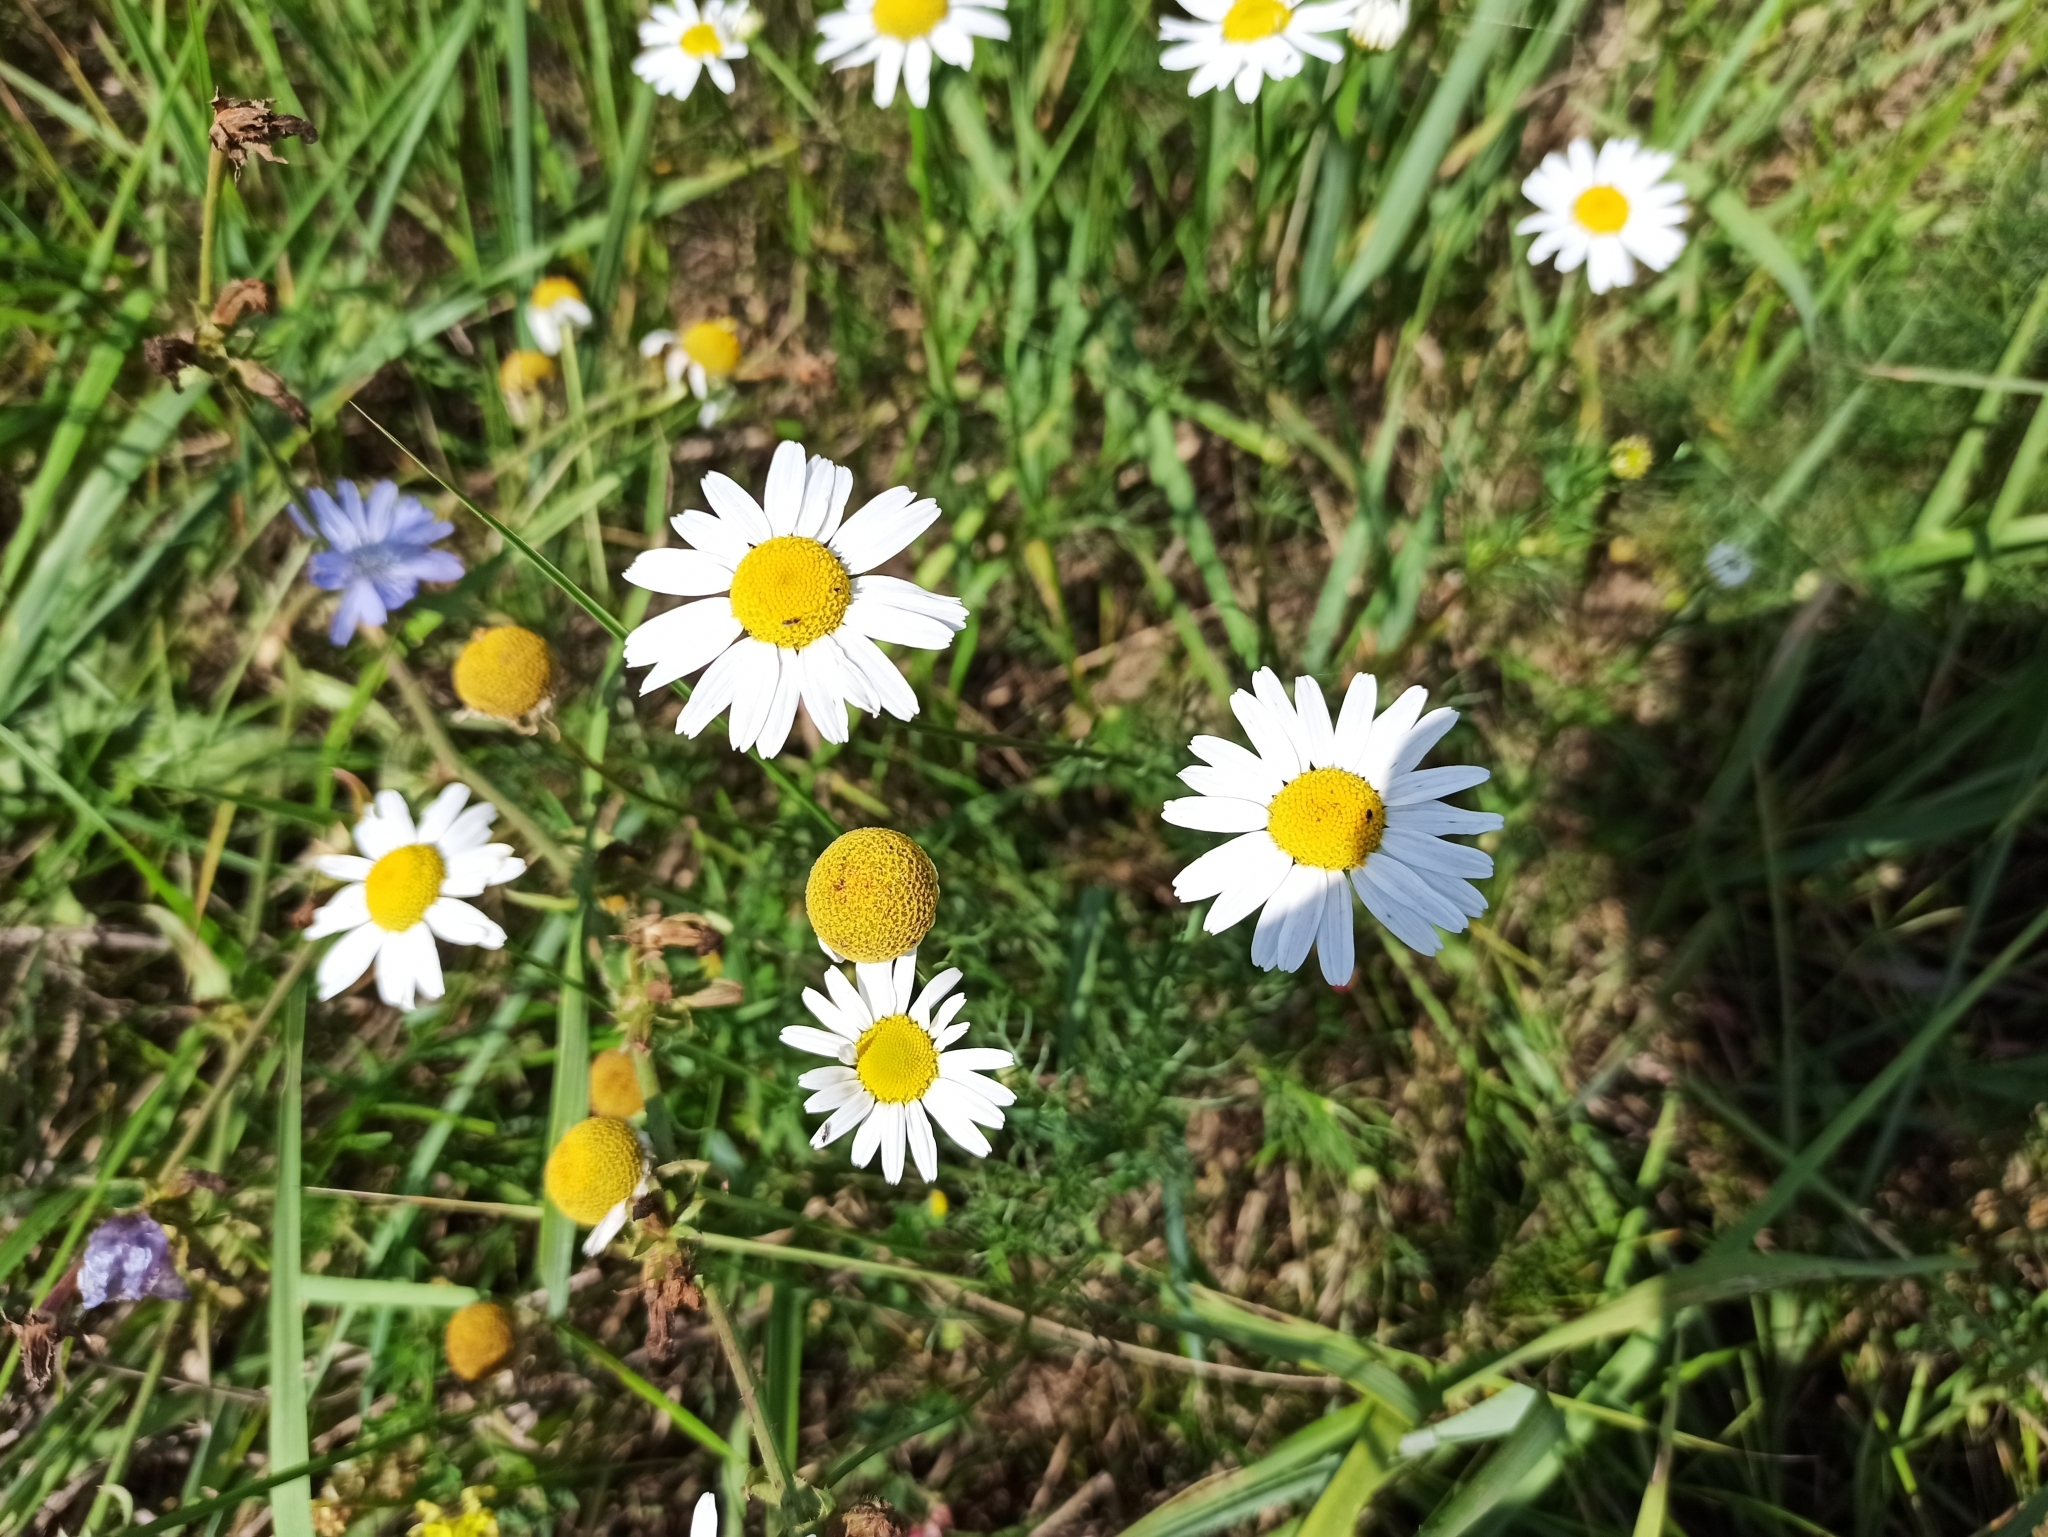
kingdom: Plantae
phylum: Tracheophyta
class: Magnoliopsida
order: Asterales
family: Asteraceae
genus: Tripleurospermum
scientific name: Tripleurospermum inodorum
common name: Scentless mayweed
